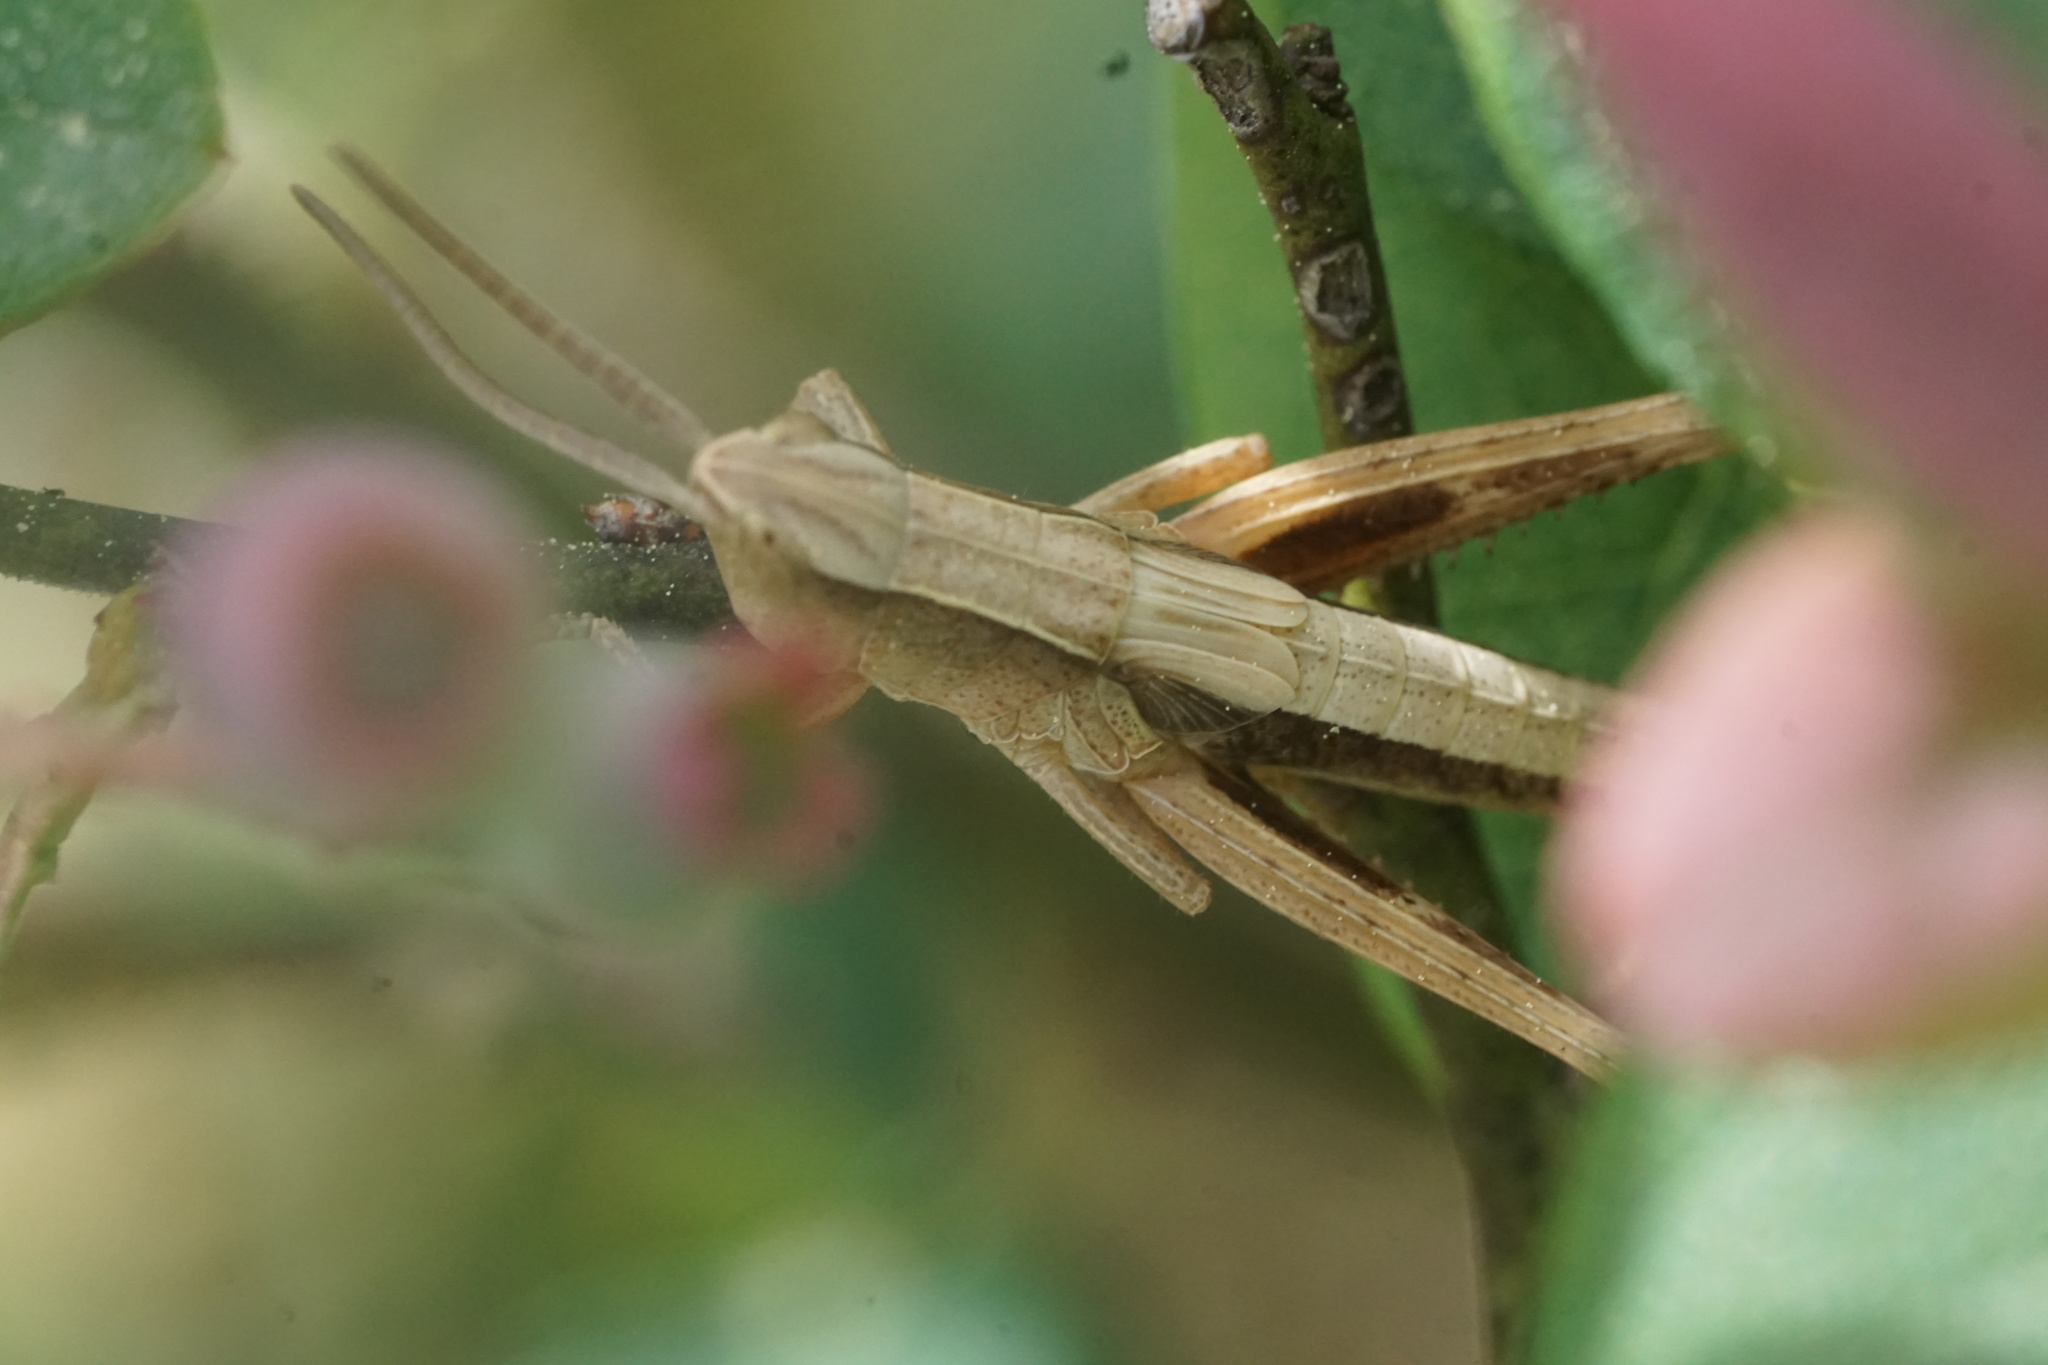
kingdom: Animalia
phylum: Arthropoda
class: Insecta
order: Orthoptera
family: Acrididae
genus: Chloealtis
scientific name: Chloealtis conspersa
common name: Sprinkled broad-winged grasshopper
